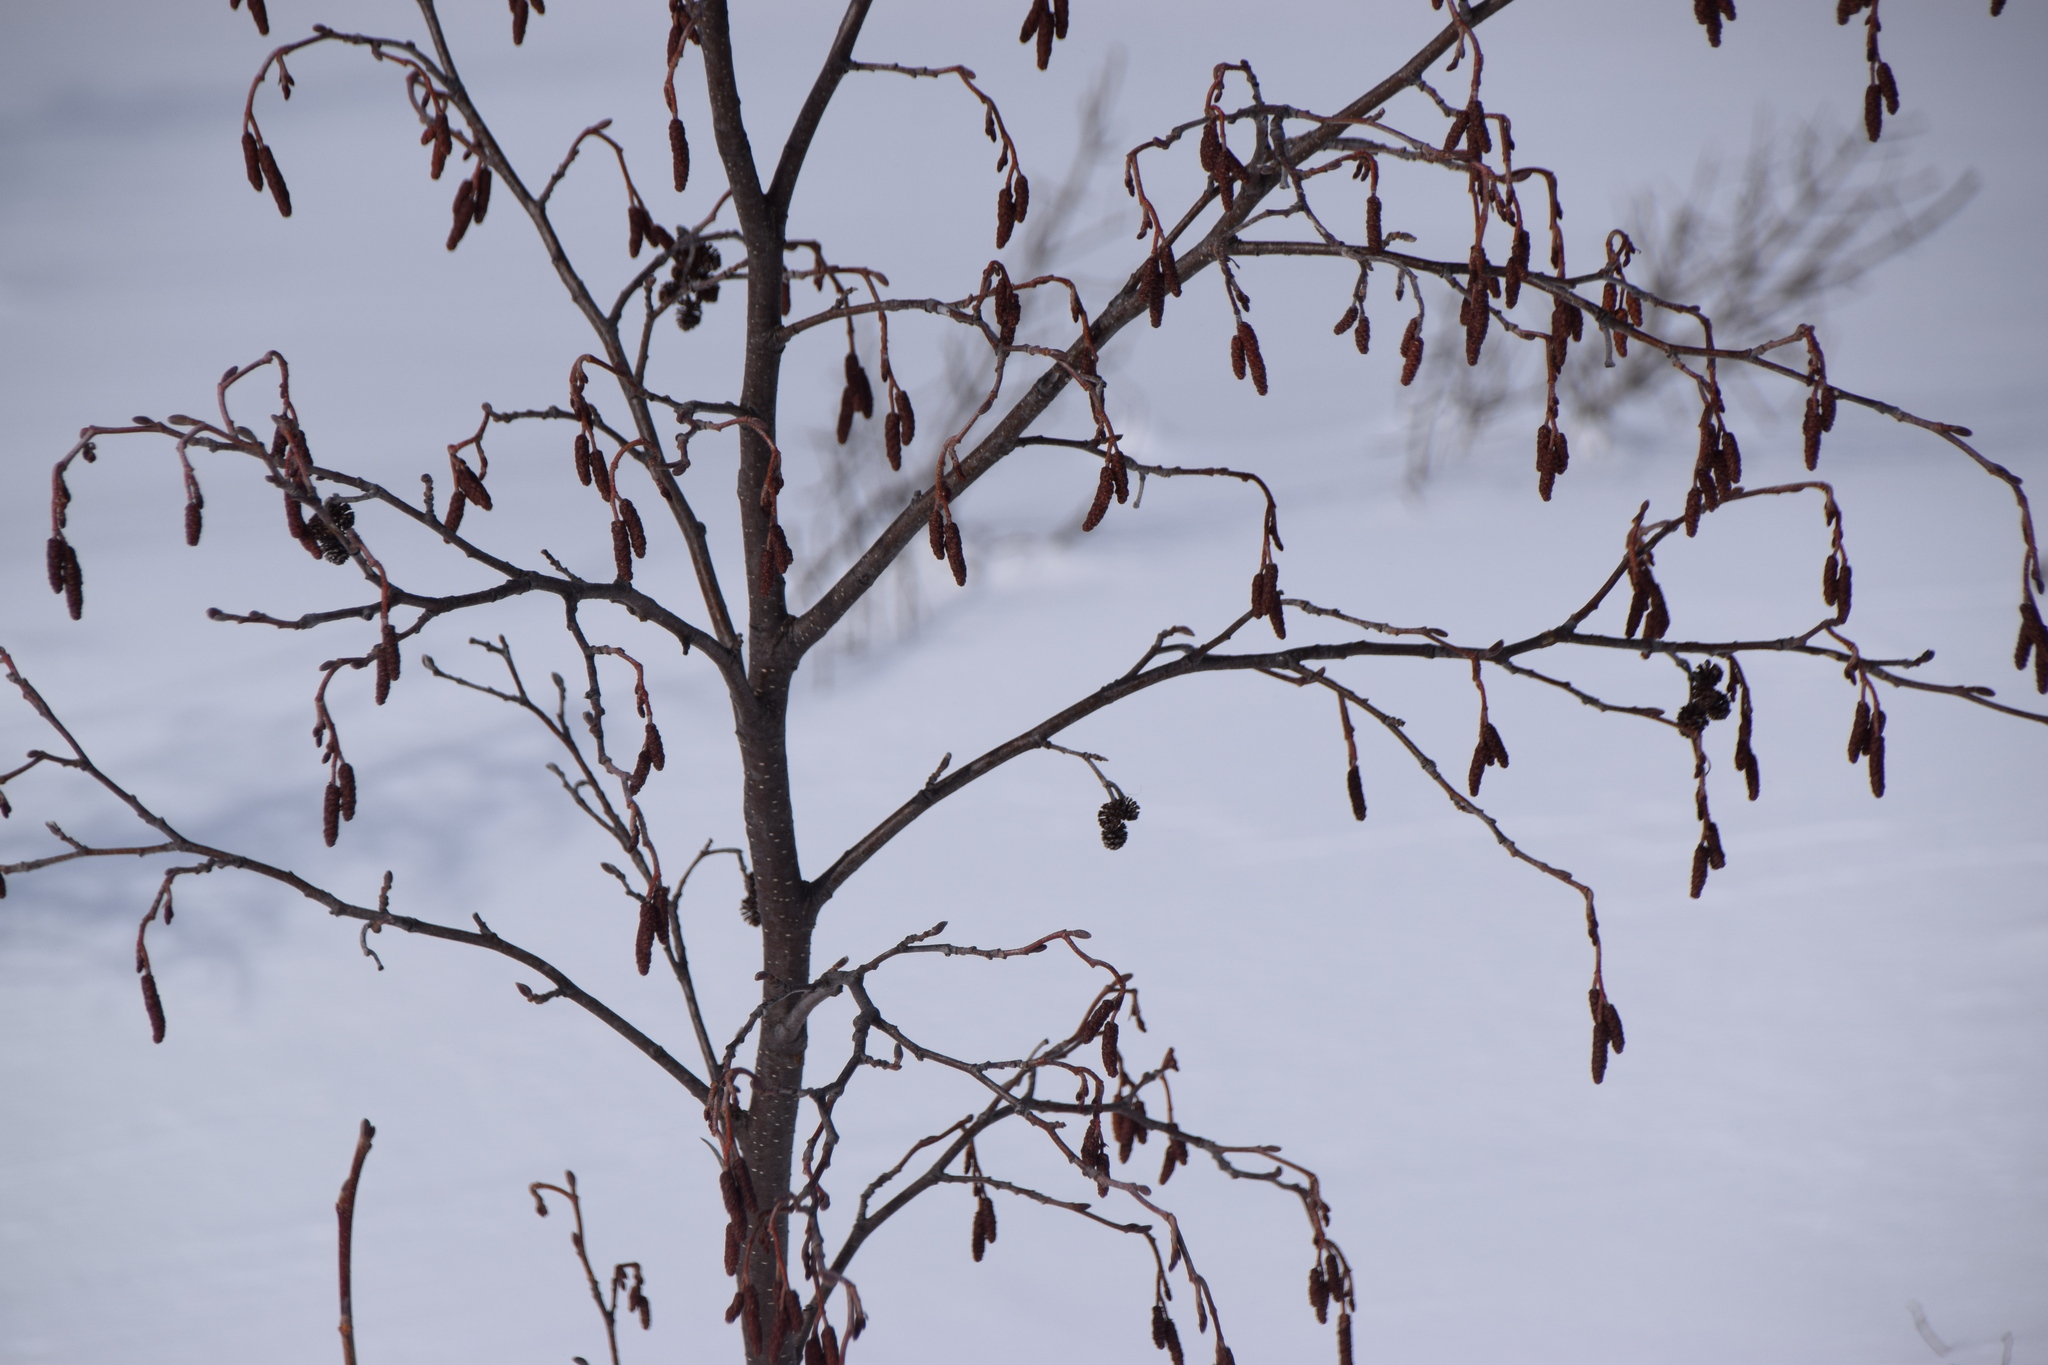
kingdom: Plantae
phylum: Tracheophyta
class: Magnoliopsida
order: Fagales
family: Betulaceae
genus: Alnus
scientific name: Alnus incana
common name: Grey alder
